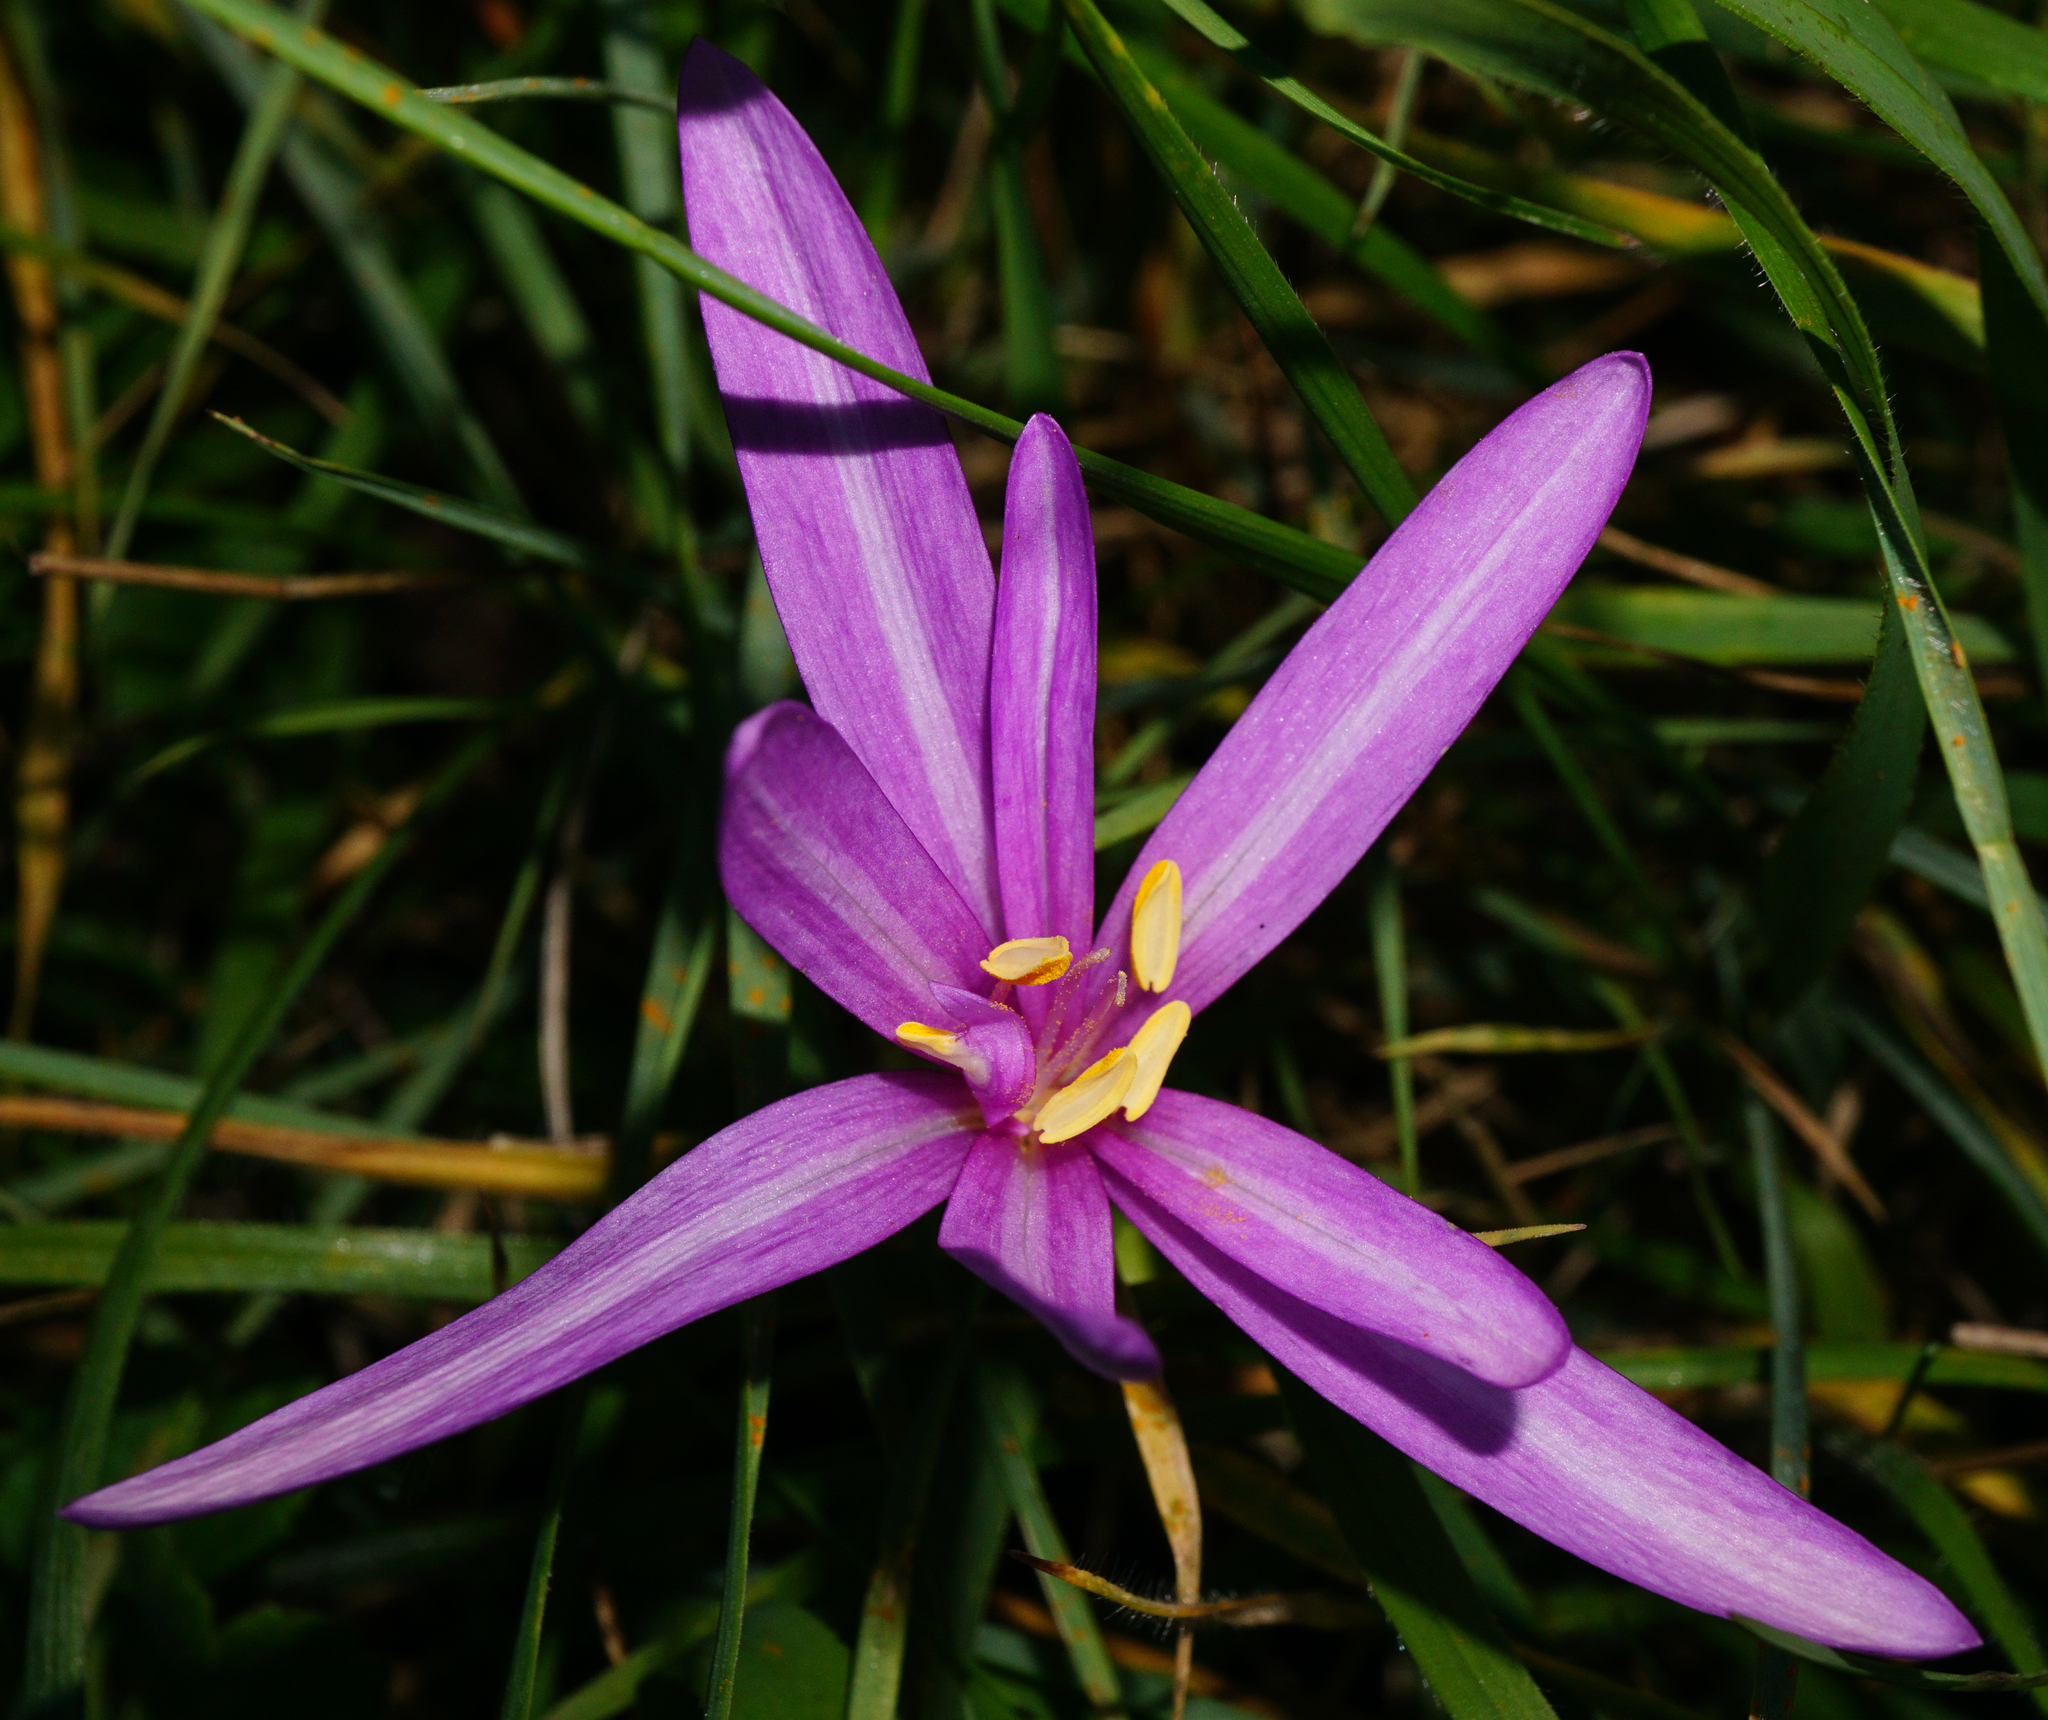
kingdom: Plantae
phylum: Tracheophyta
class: Liliopsida
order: Liliales
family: Colchicaceae
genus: Colchicum
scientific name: Colchicum autumnale
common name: Autumn crocus
